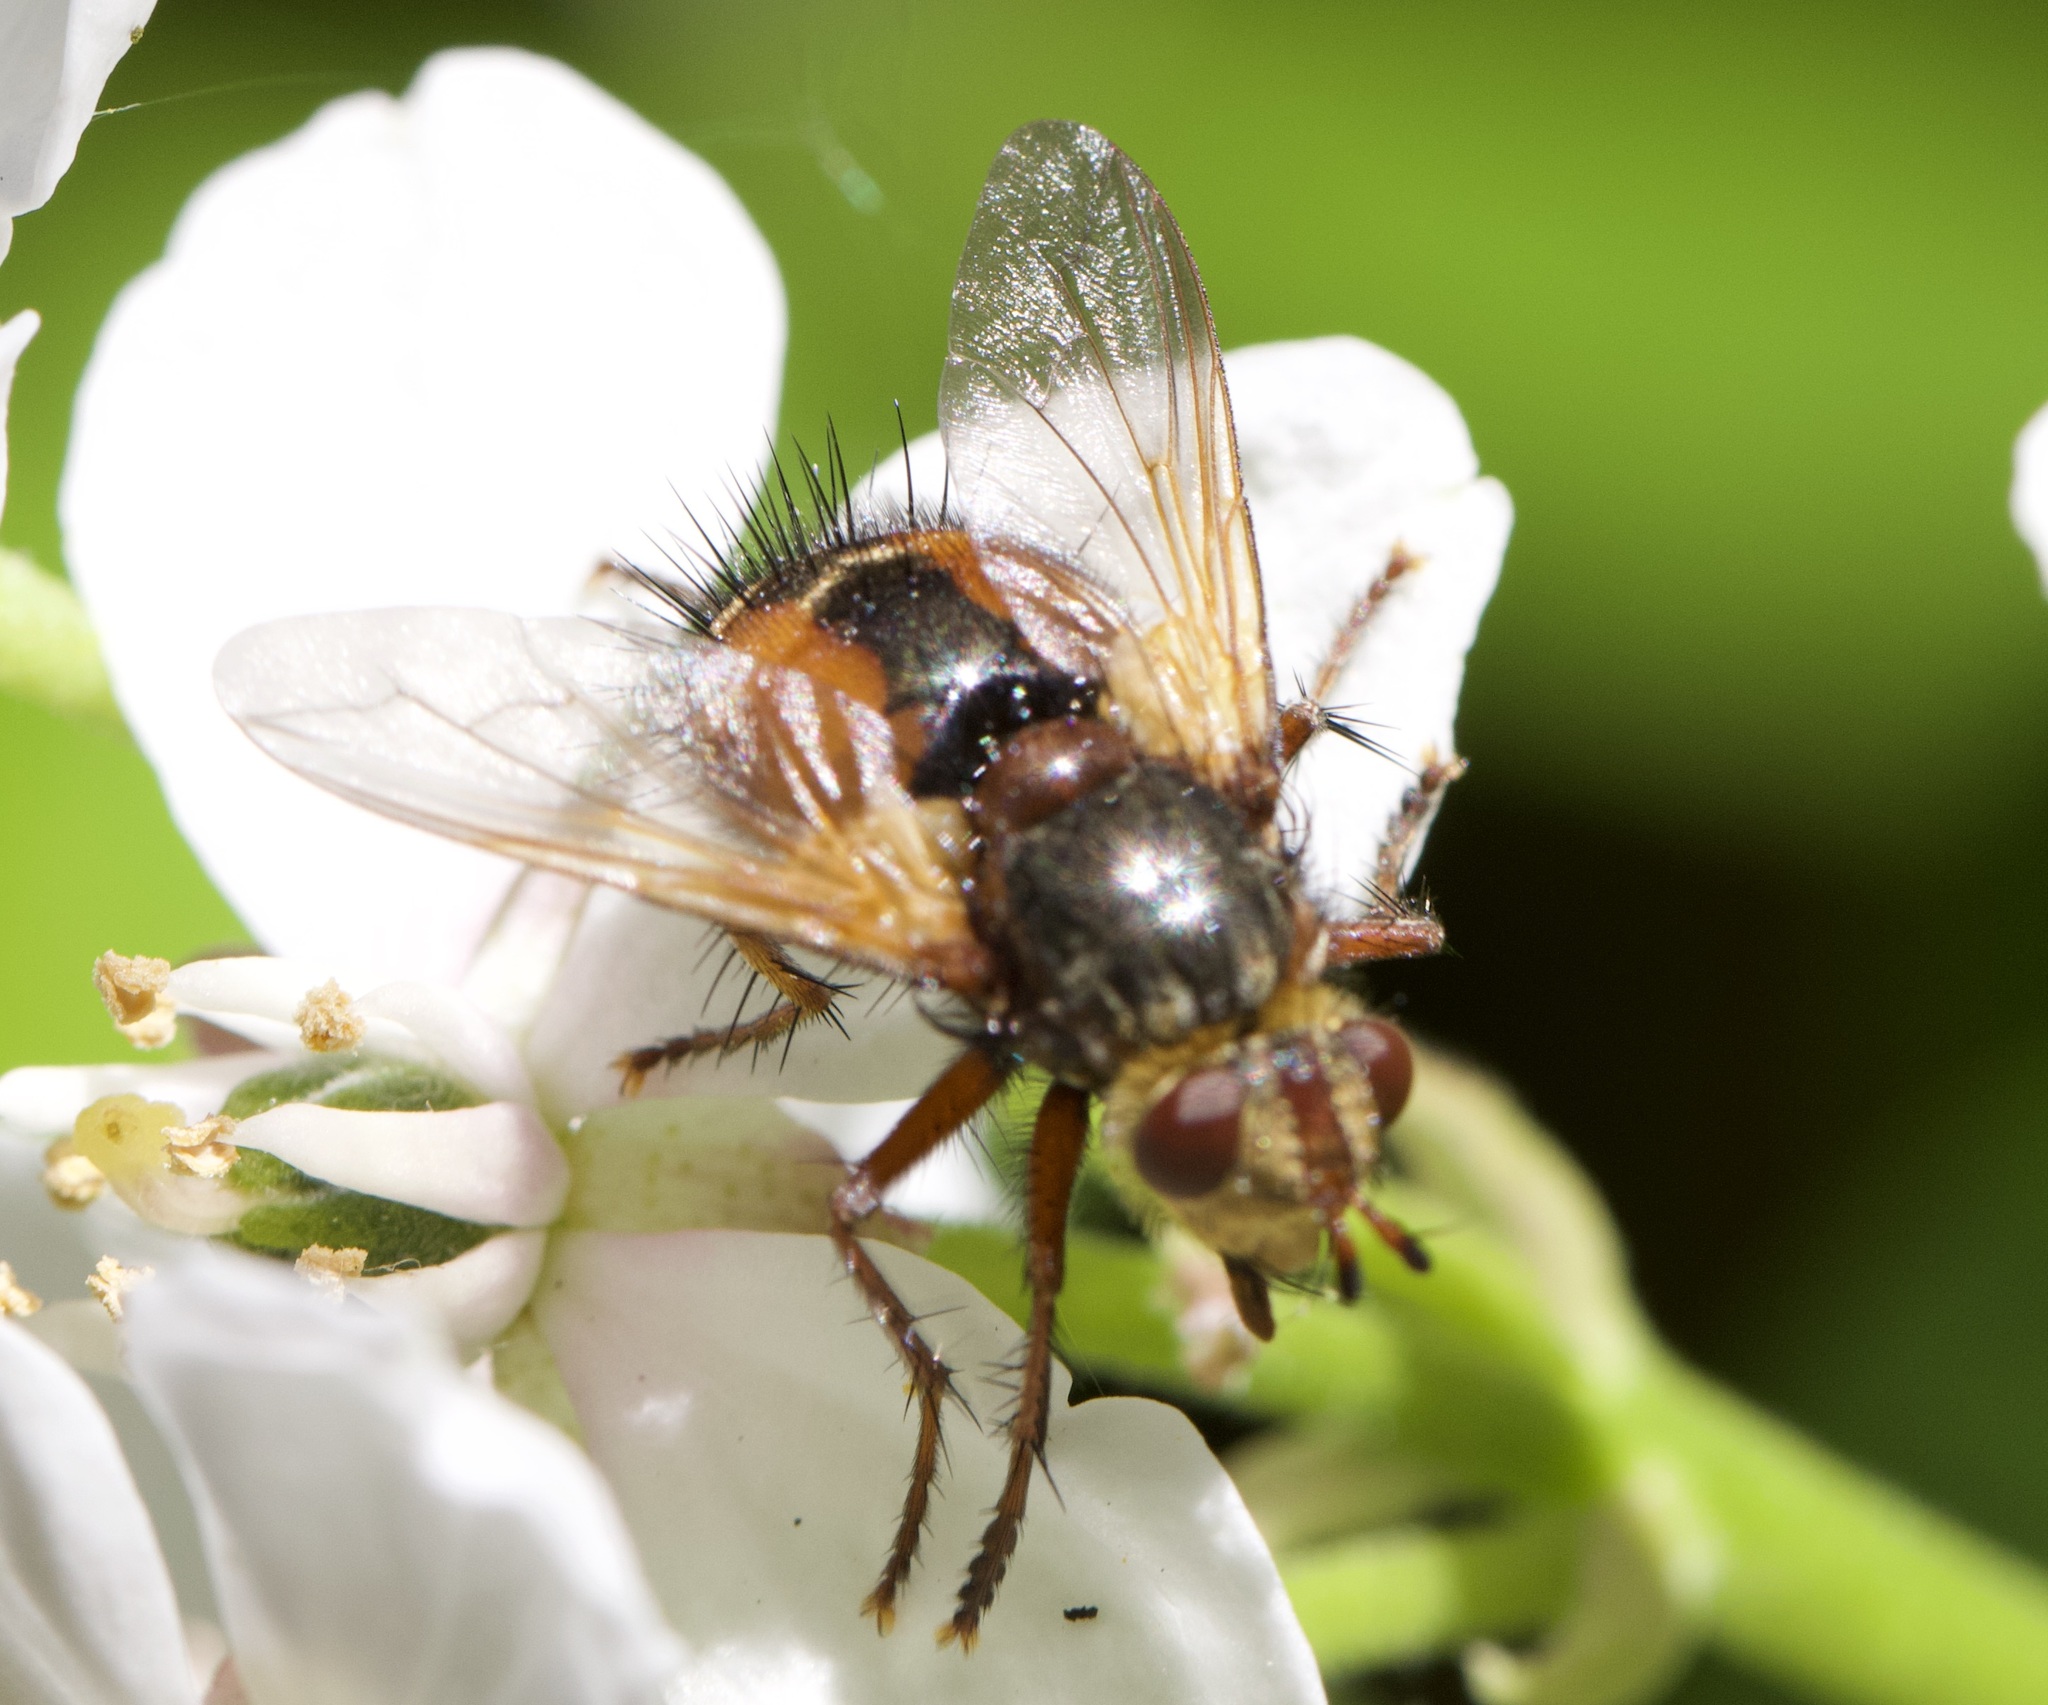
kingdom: Animalia
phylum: Arthropoda
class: Insecta
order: Diptera
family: Tachinidae
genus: Tachina
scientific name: Tachina fera
